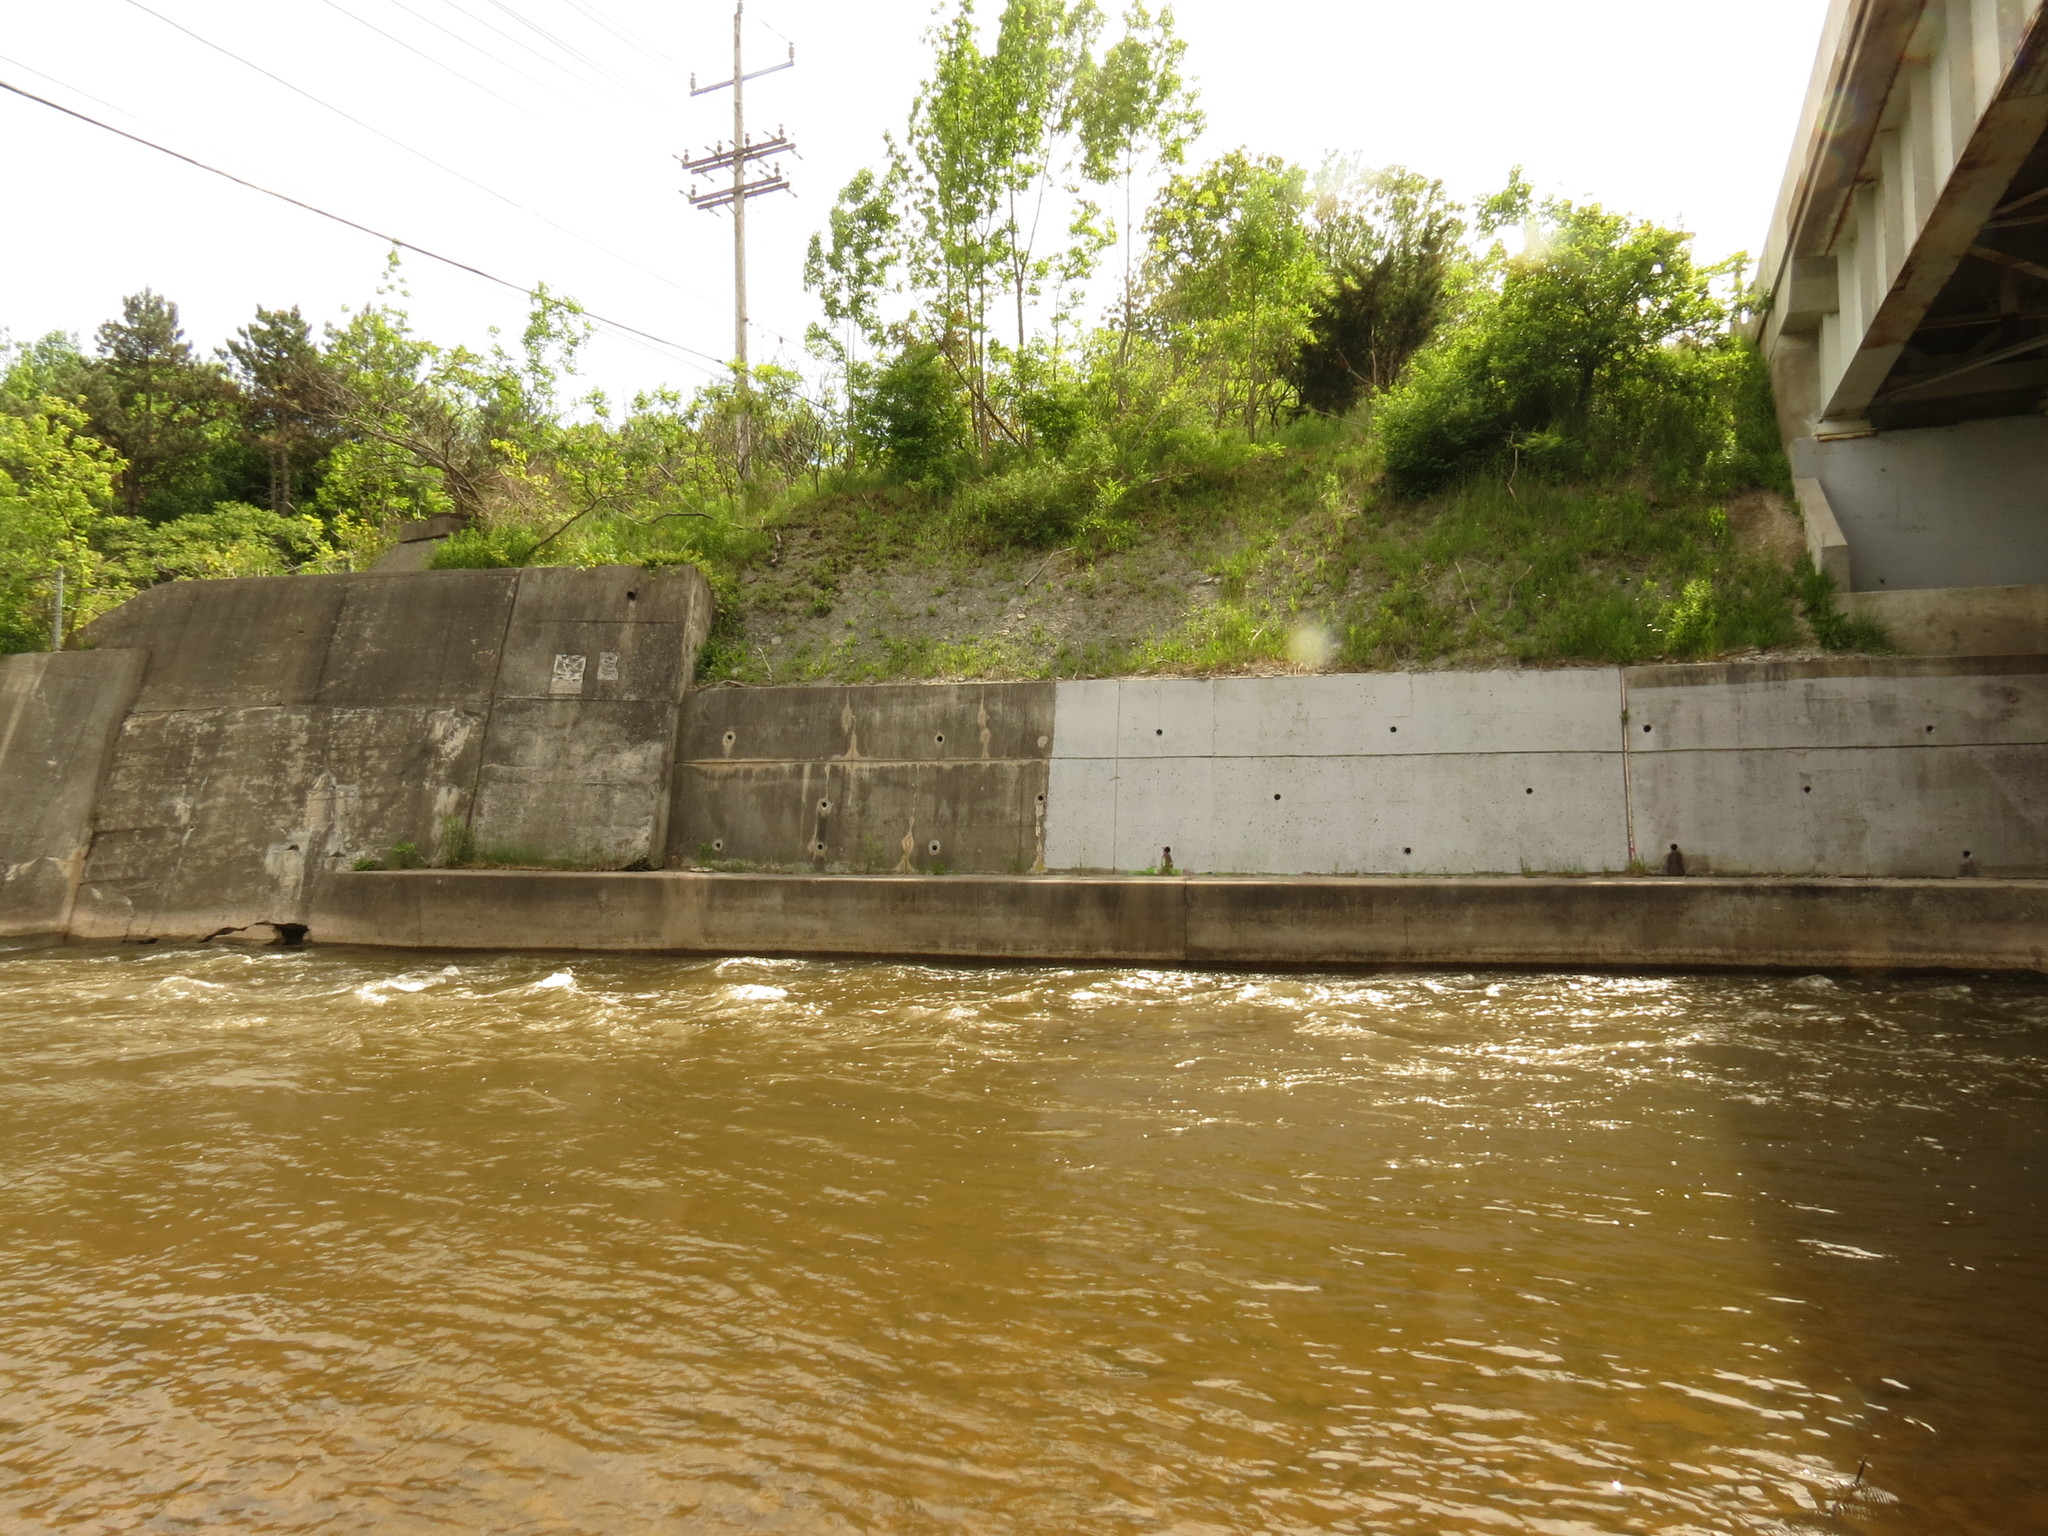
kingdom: Animalia
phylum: Chordata
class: Aves
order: Passeriformes
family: Hirundinidae
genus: Riparia
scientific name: Riparia riparia
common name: Sand martin
